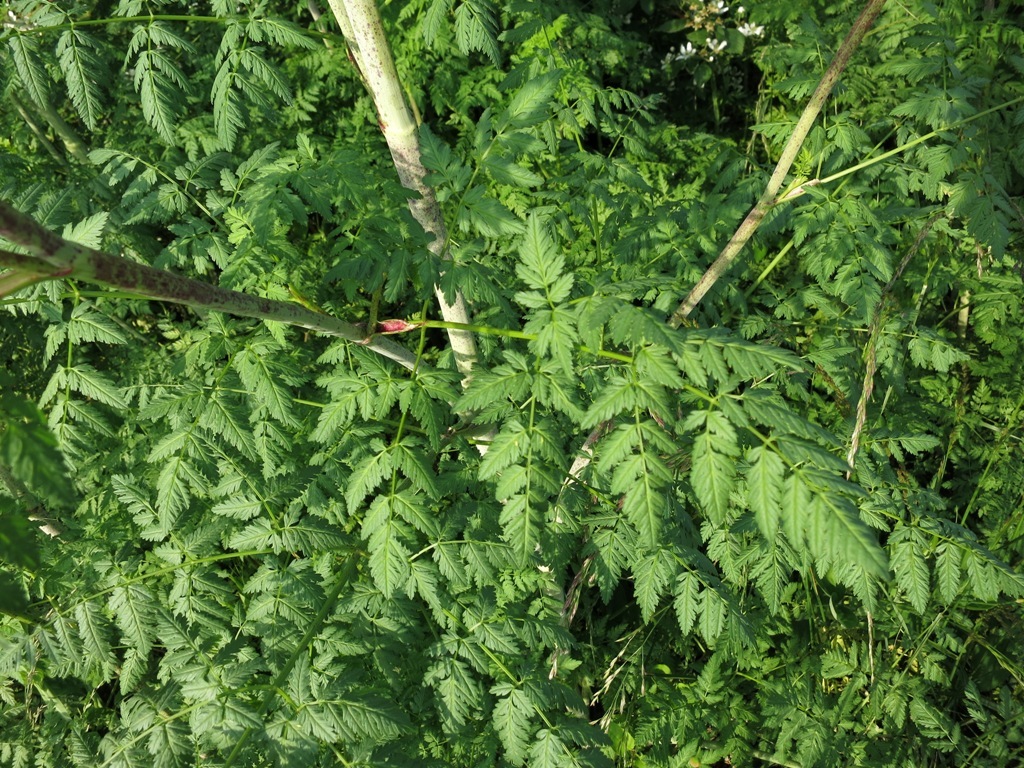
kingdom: Plantae
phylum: Tracheophyta
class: Magnoliopsida
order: Apiales
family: Apiaceae
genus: Conium
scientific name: Conium maculatum
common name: Hemlock
